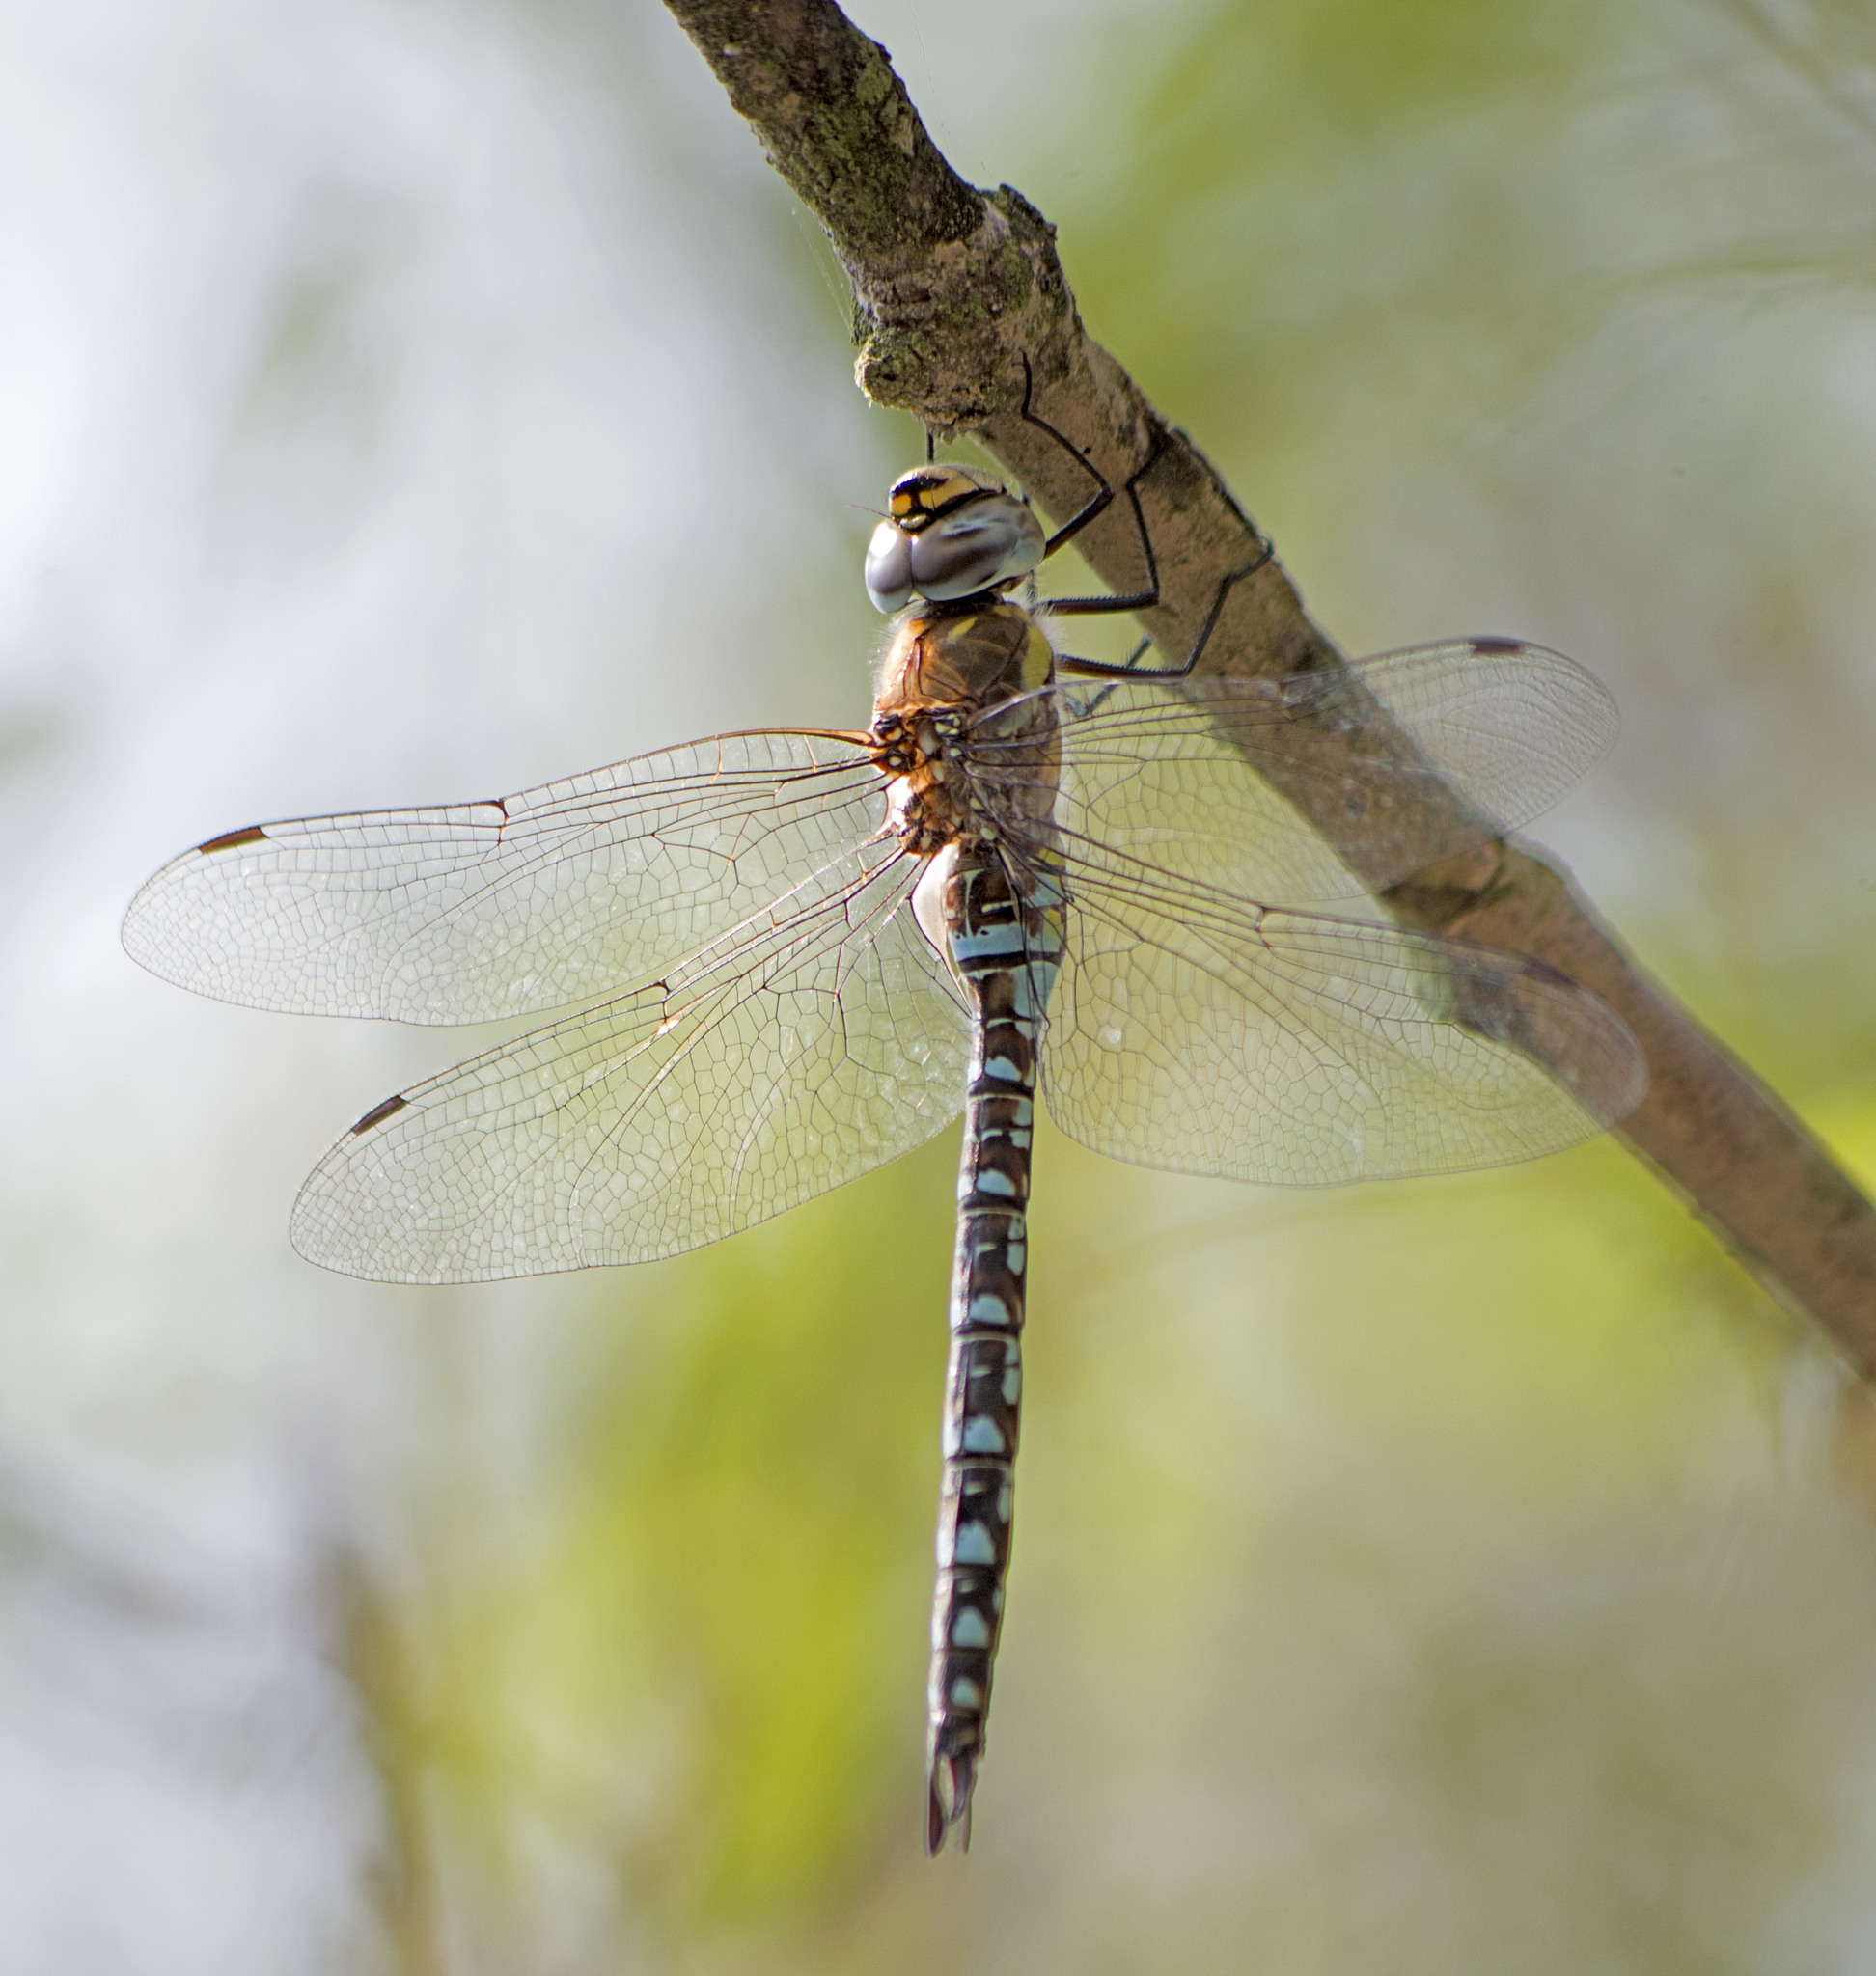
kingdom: Animalia
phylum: Arthropoda
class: Insecta
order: Odonata
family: Aeshnidae
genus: Aeshna
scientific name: Aeshna mixta
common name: Migrant hawker
